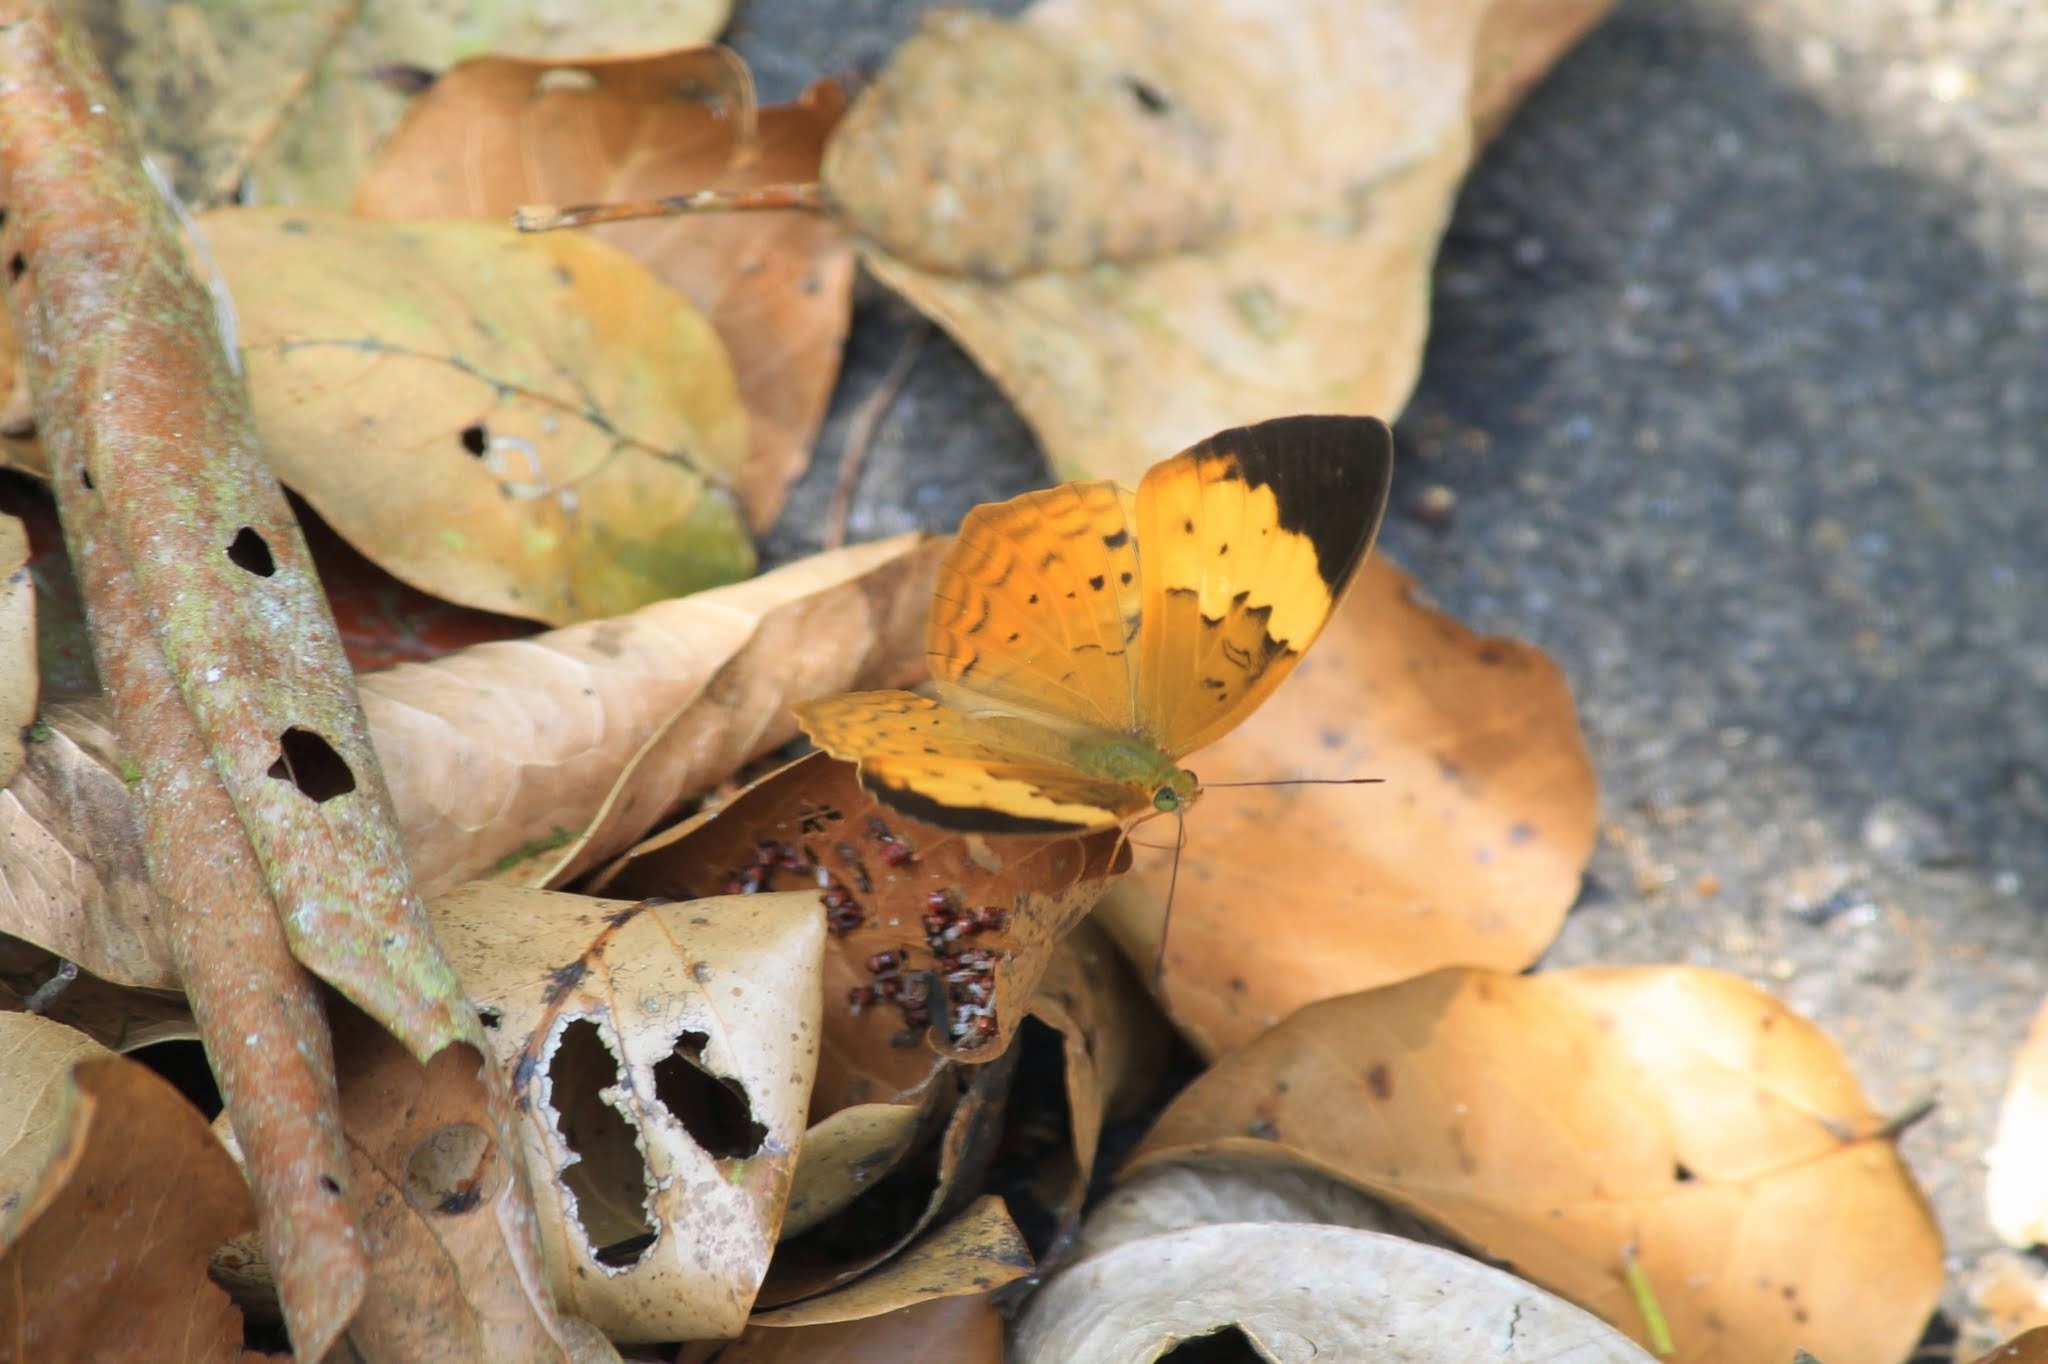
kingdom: Animalia
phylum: Arthropoda
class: Insecta
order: Lepidoptera
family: Nymphalidae
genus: Cupha
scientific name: Cupha erymanthis
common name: Rustic
